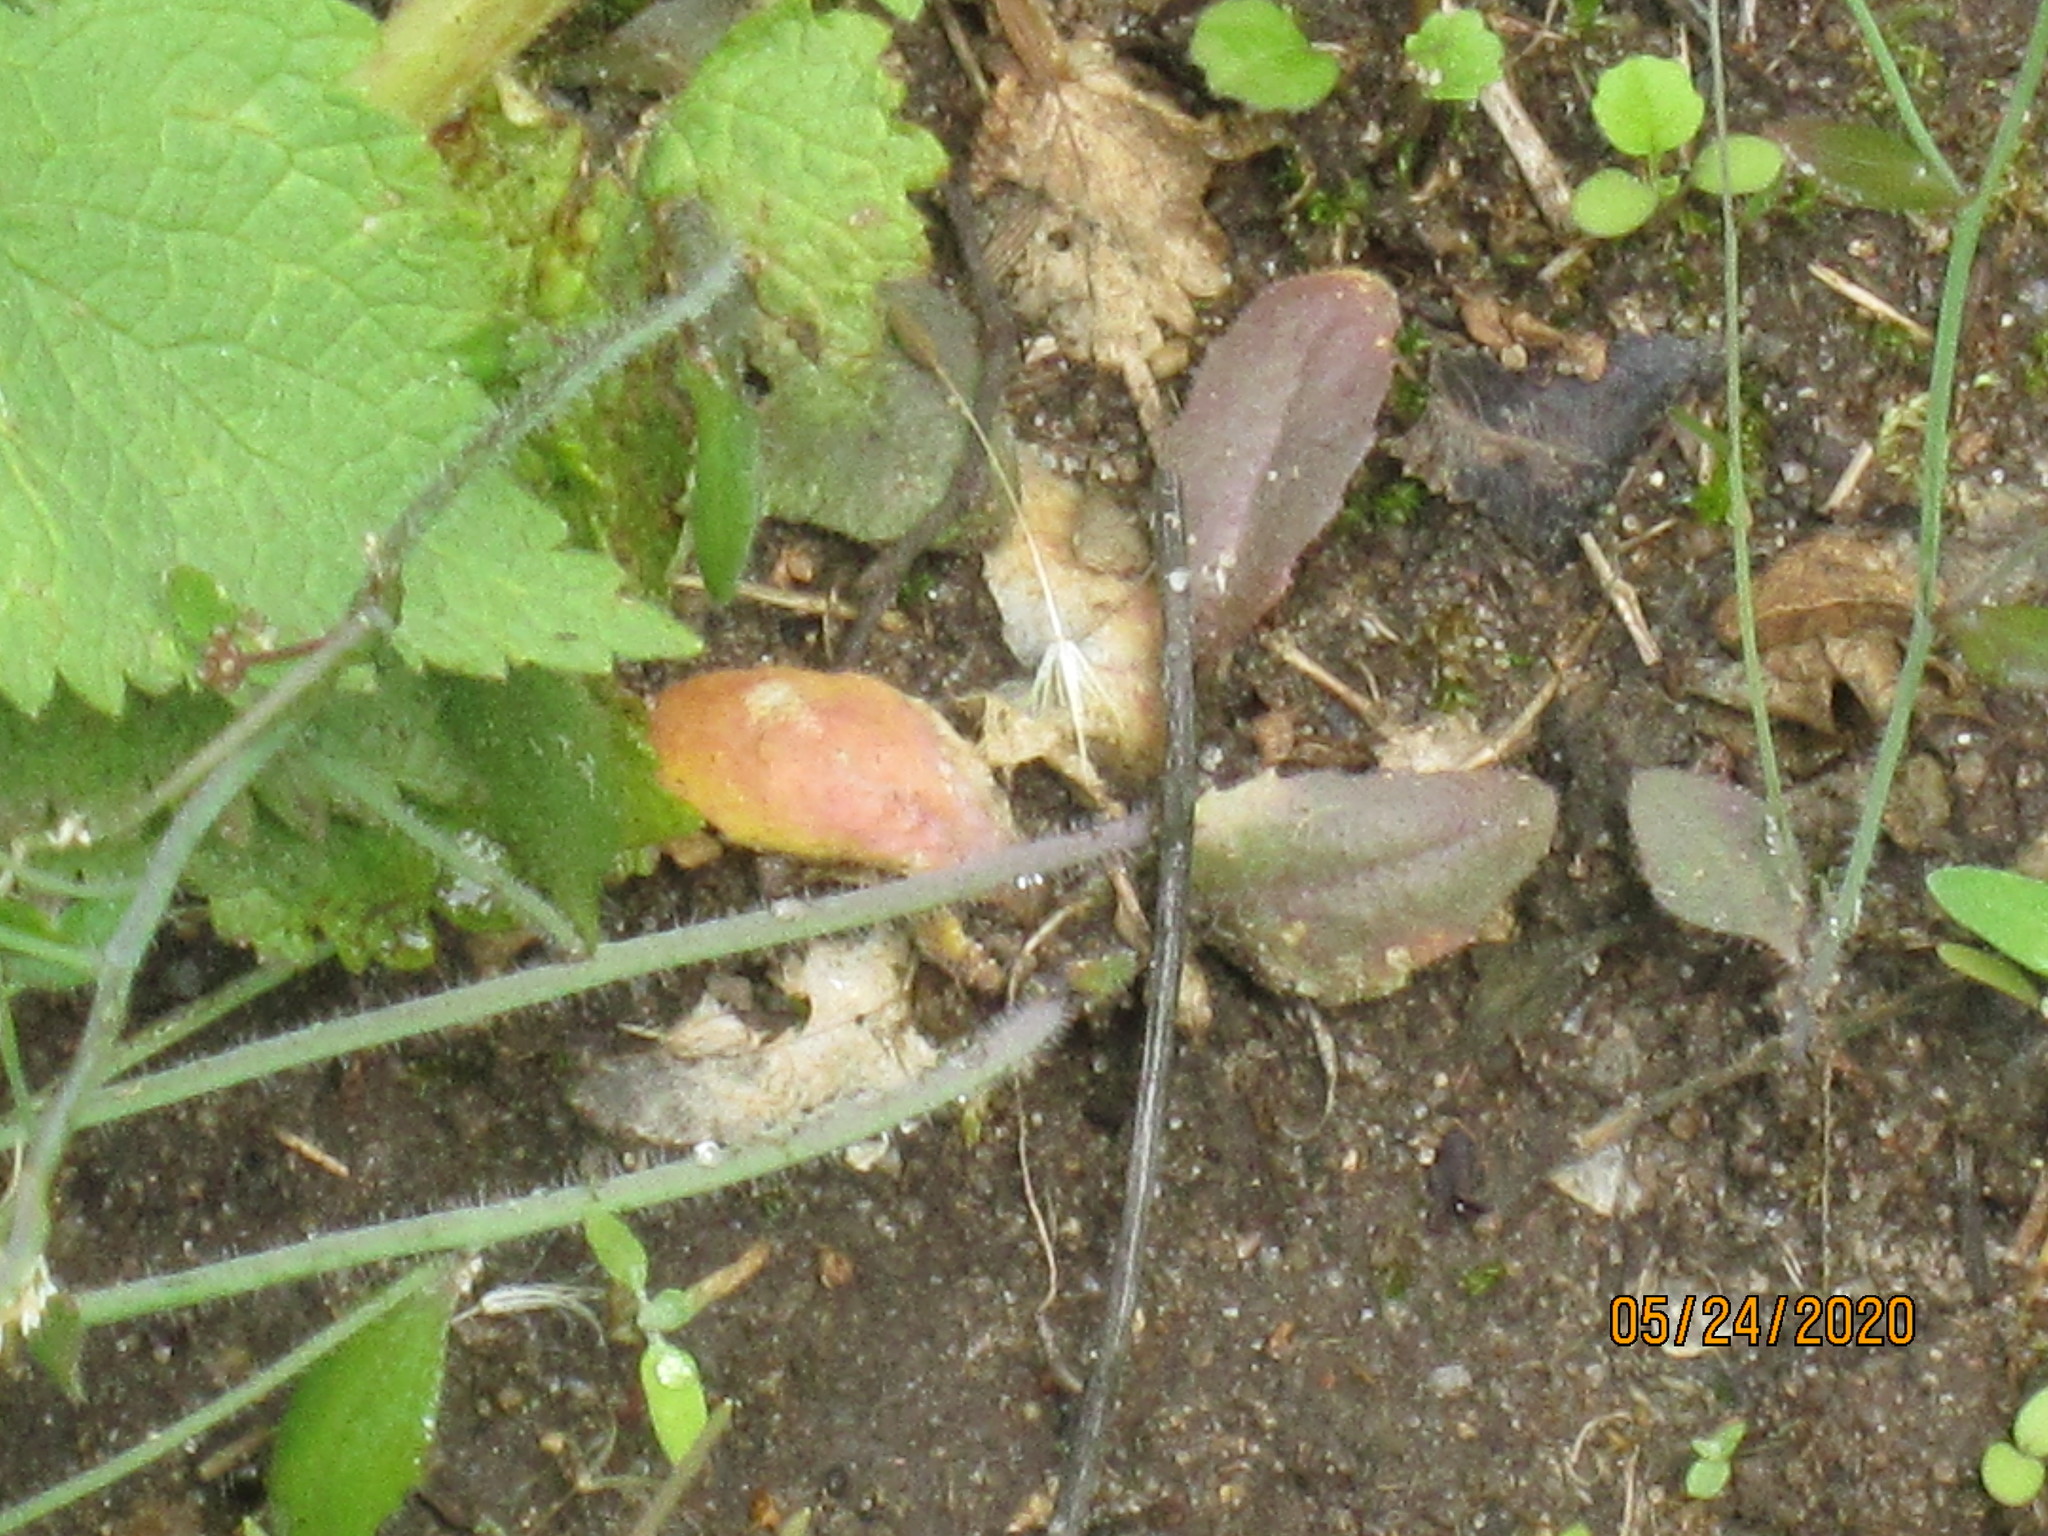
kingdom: Plantae
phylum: Tracheophyta
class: Magnoliopsida
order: Brassicales
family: Brassicaceae
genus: Arabidopsis
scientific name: Arabidopsis thaliana
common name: Thale cress
